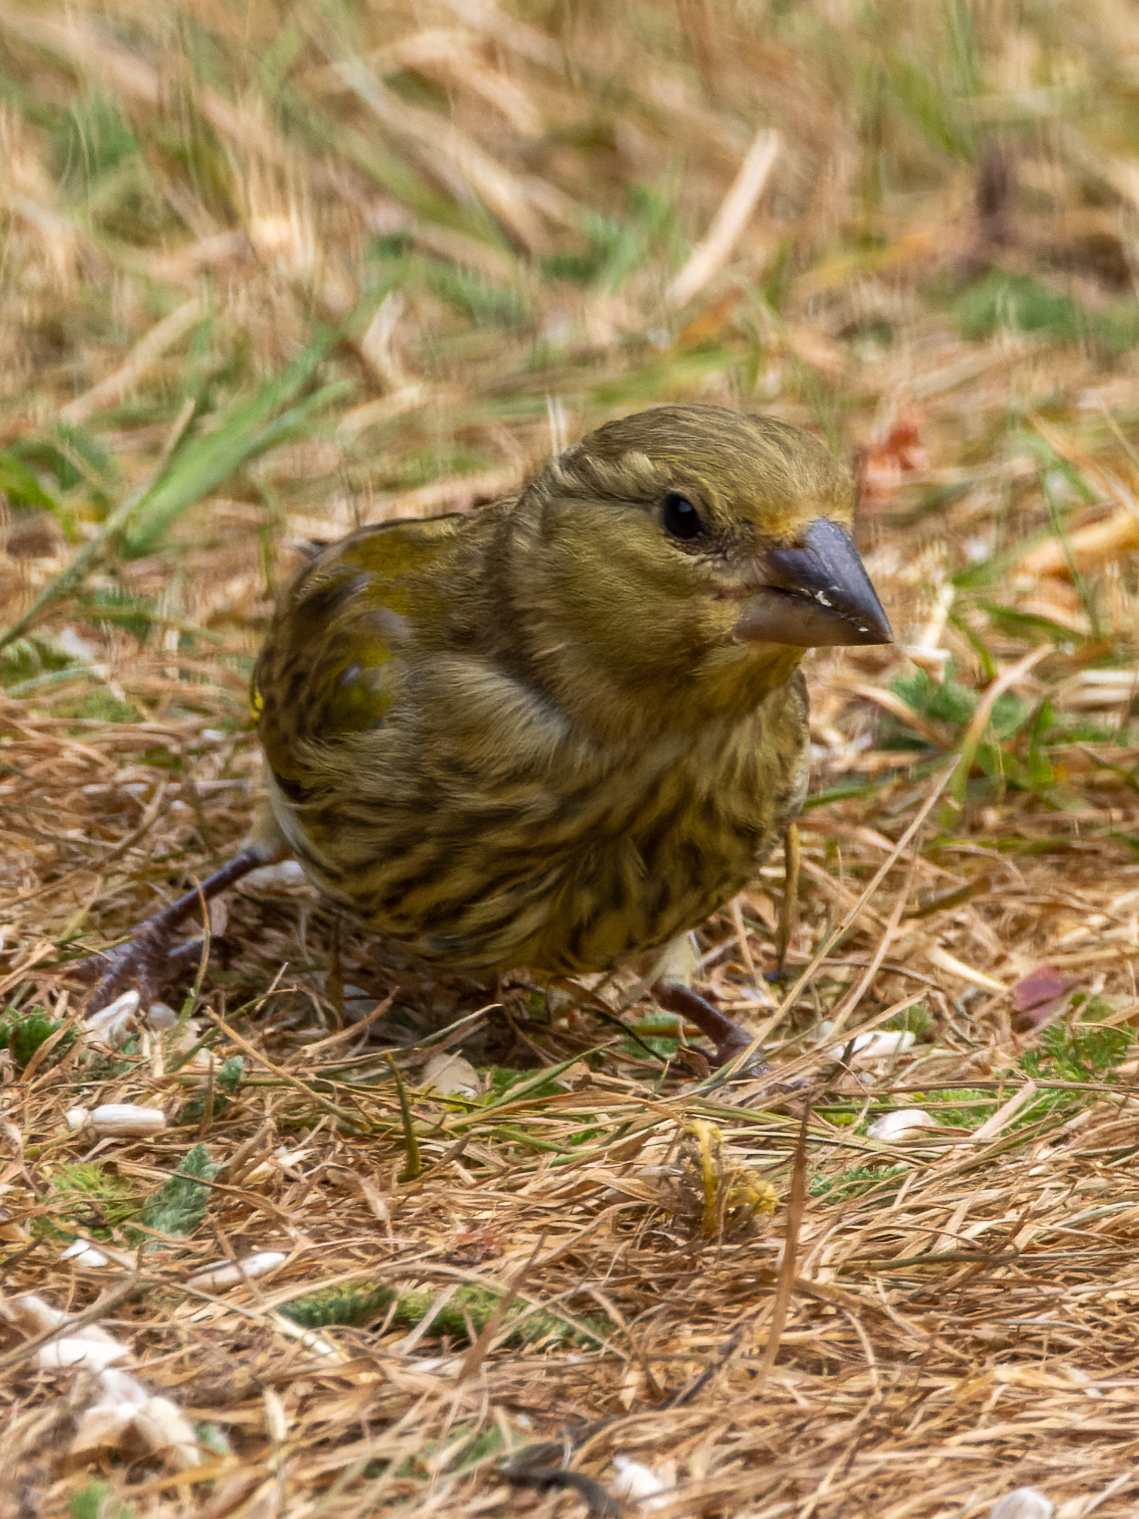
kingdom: Plantae
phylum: Tracheophyta
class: Liliopsida
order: Poales
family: Poaceae
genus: Chloris
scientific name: Chloris chloris
